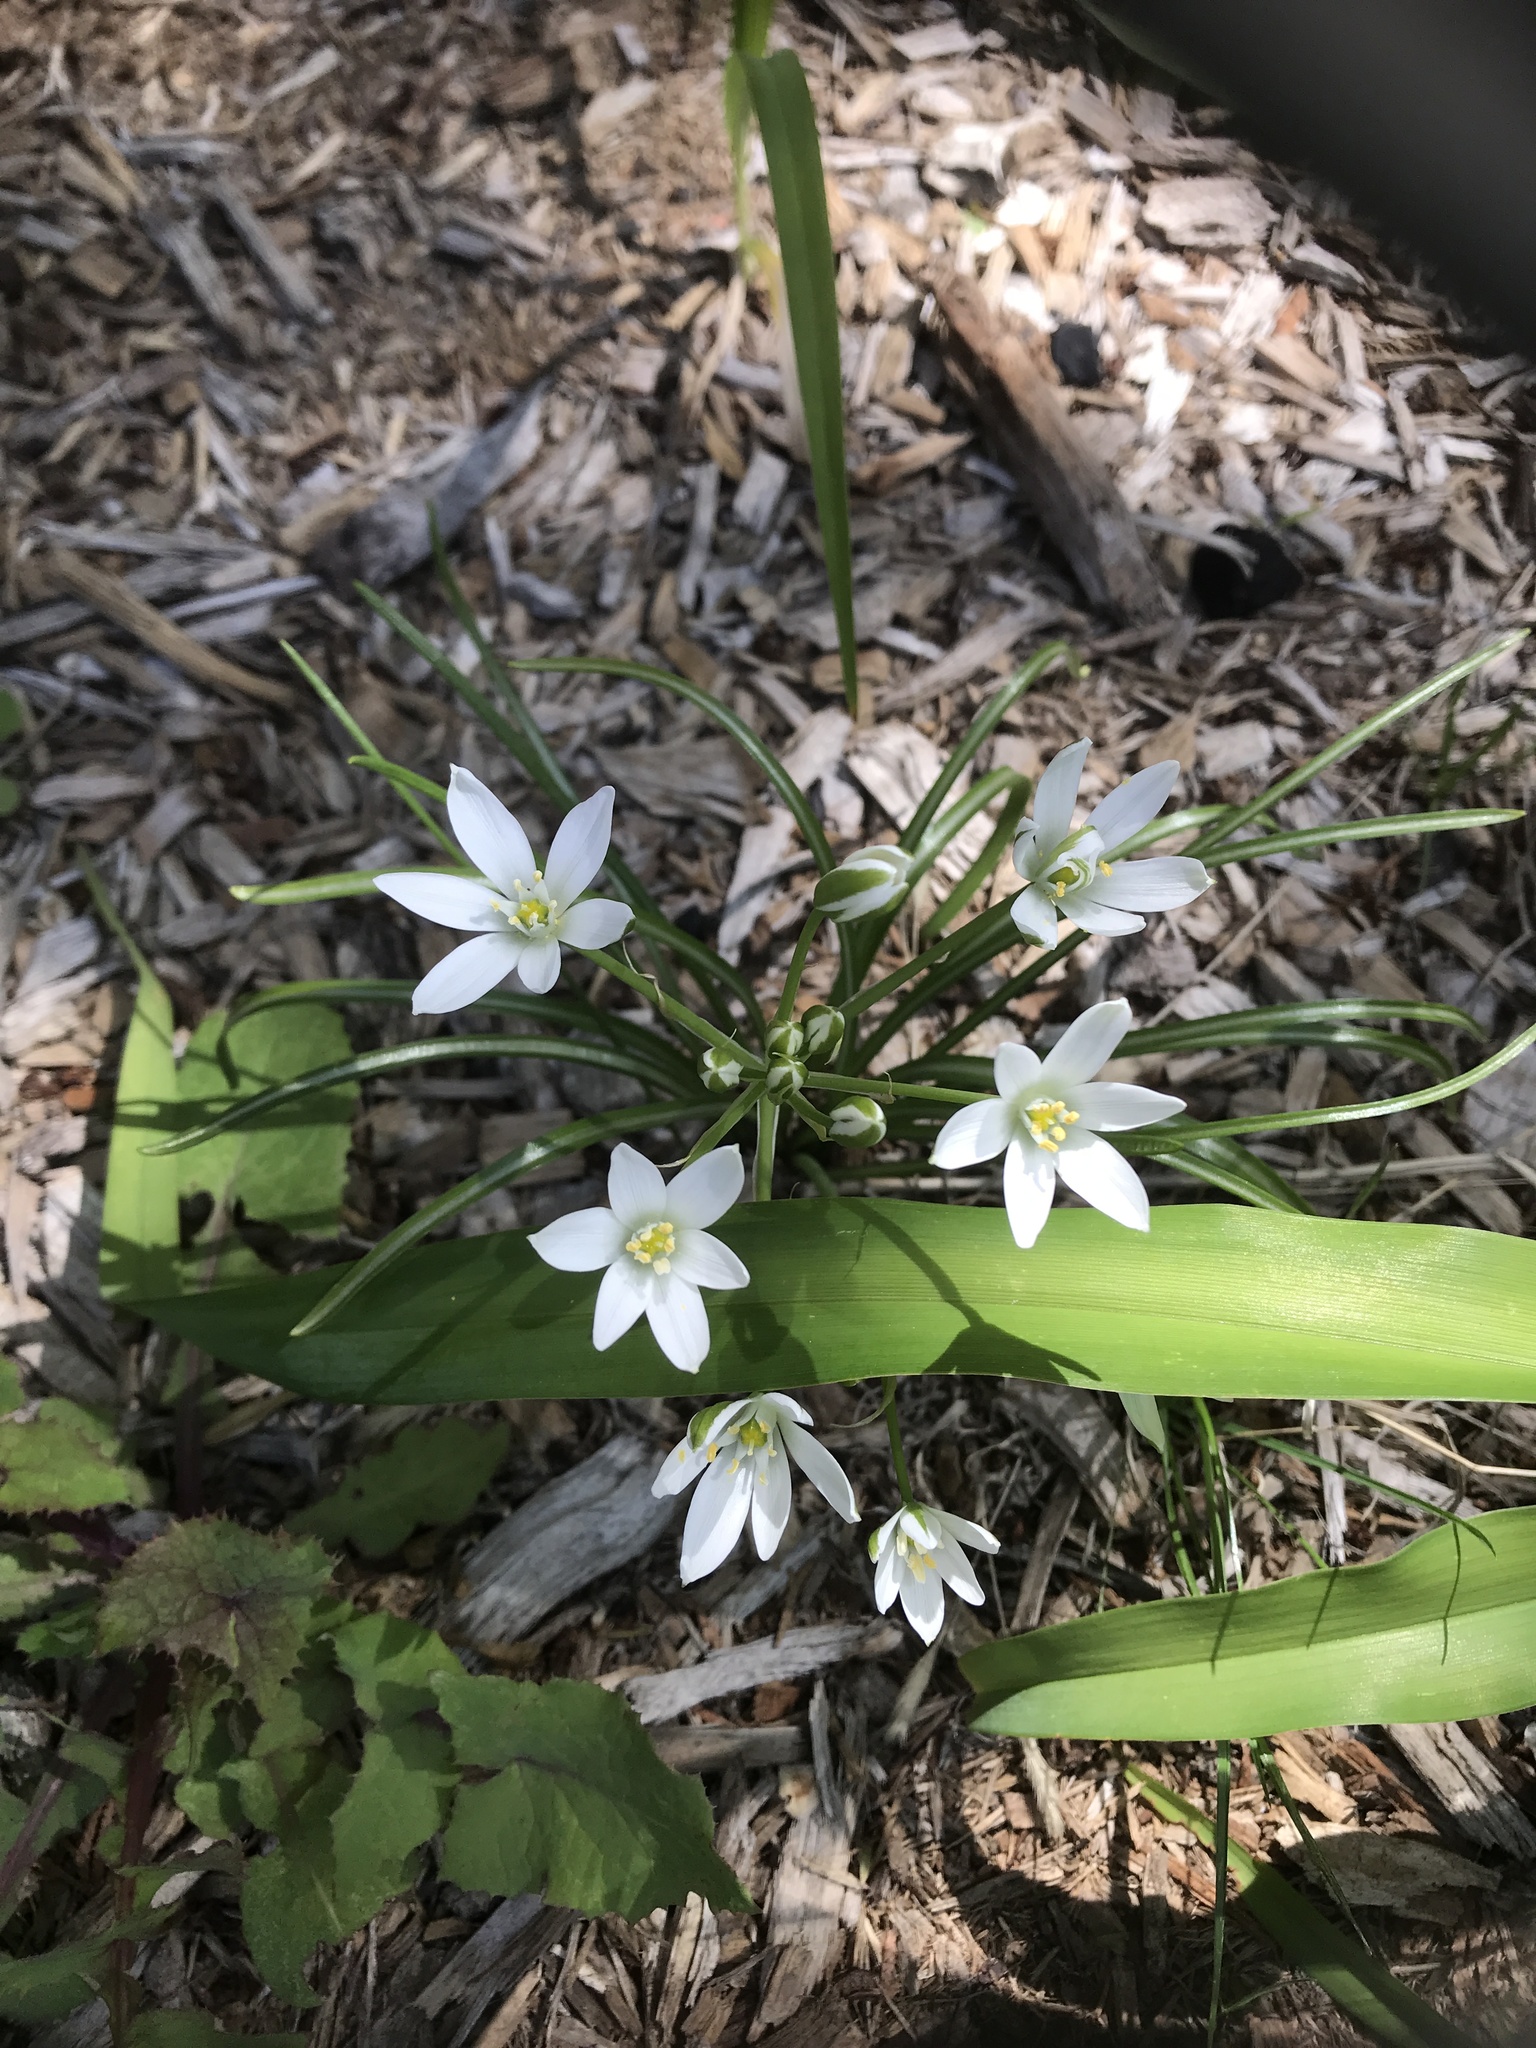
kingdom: Plantae
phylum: Tracheophyta
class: Liliopsida
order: Asparagales
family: Asparagaceae
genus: Ornithogalum
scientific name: Ornithogalum umbellatum
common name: Garden star-of-bethlehem
